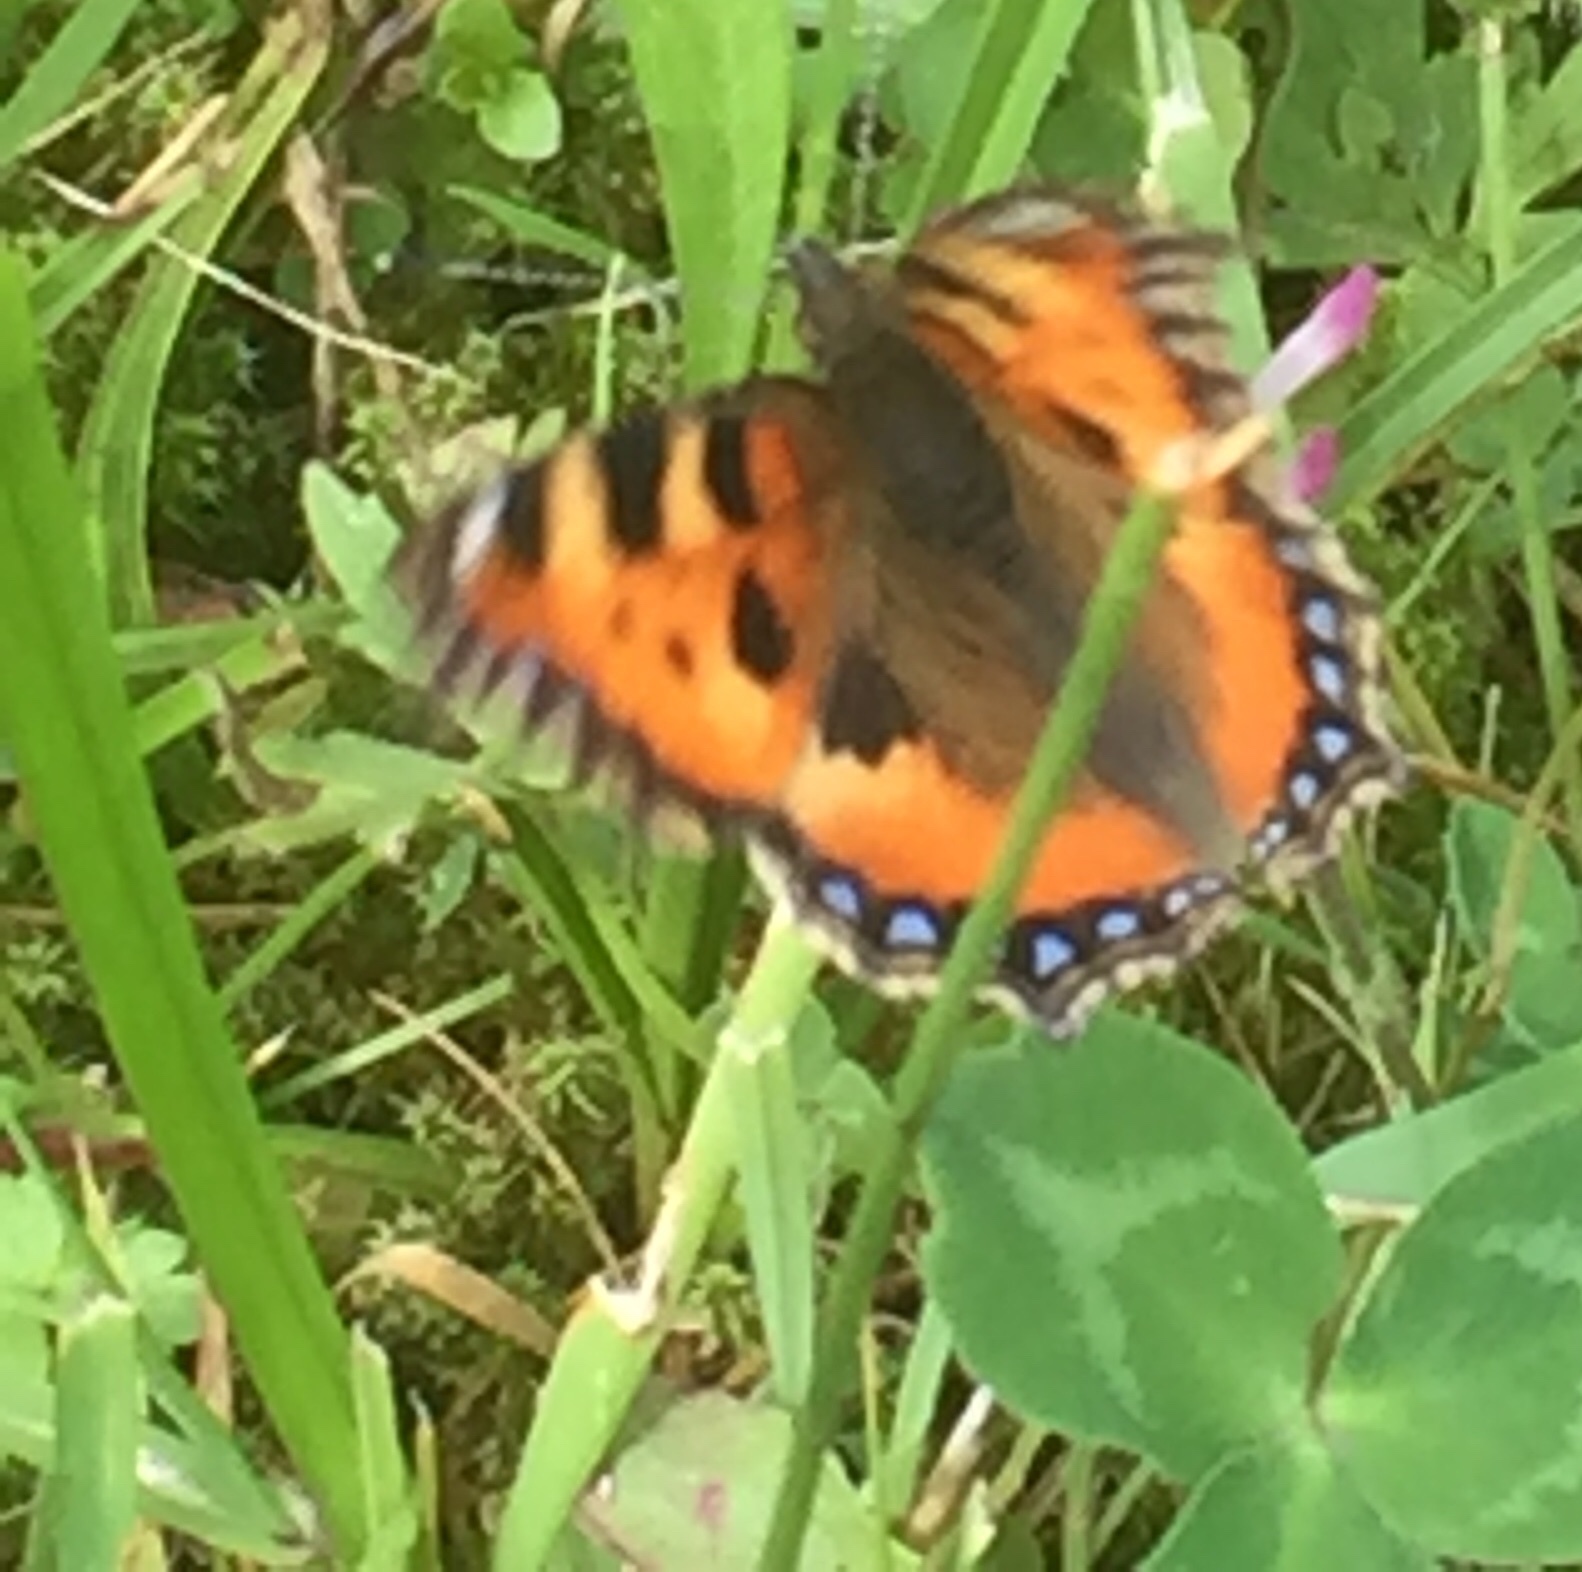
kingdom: Animalia
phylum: Arthropoda
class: Insecta
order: Lepidoptera
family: Nymphalidae
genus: Aglais
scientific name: Aglais urticae
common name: Small tortoiseshell
